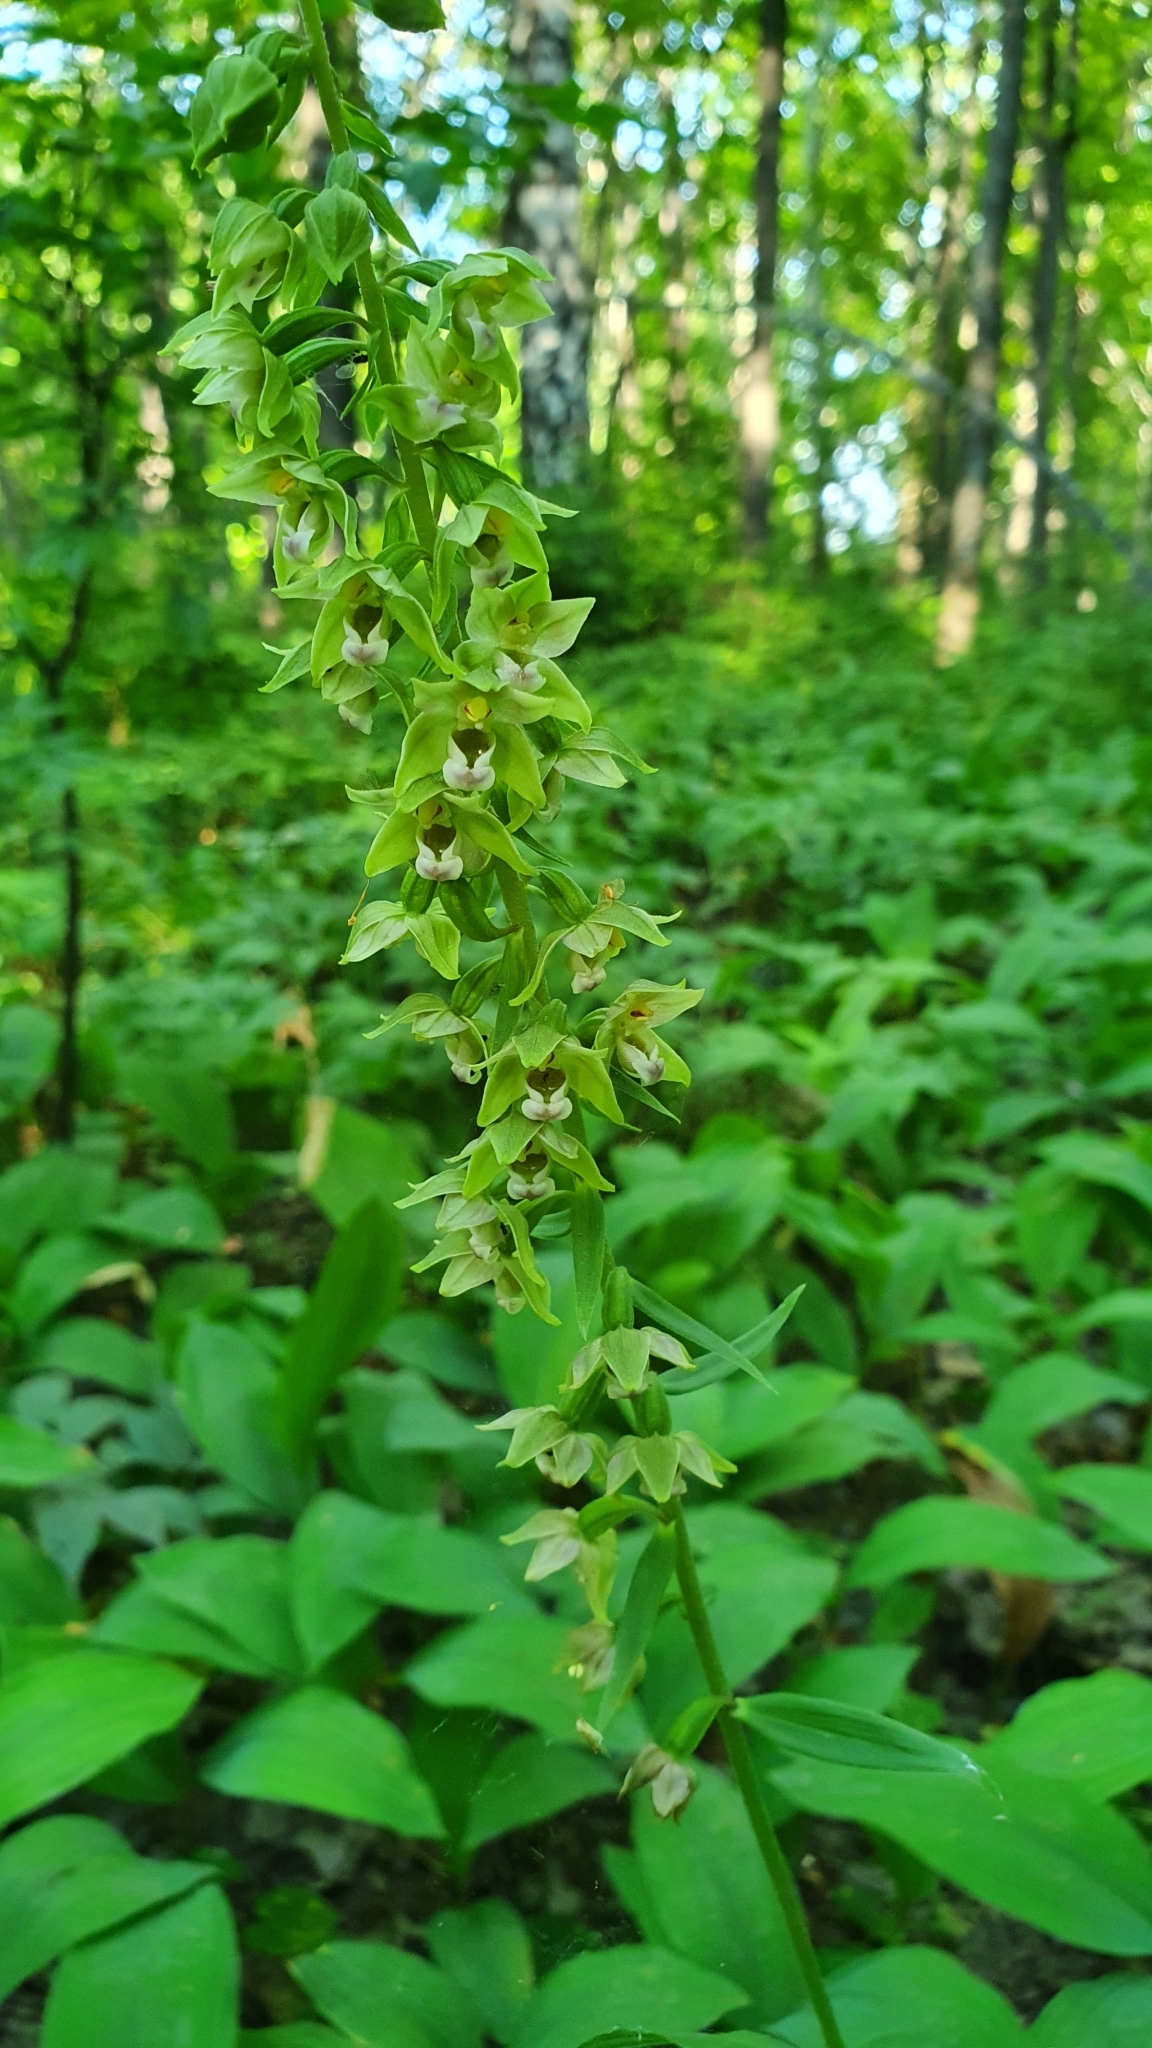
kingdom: Plantae
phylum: Tracheophyta
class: Liliopsida
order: Asparagales
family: Orchidaceae
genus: Epipactis
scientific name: Epipactis helleborine
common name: Broad-leaved helleborine
